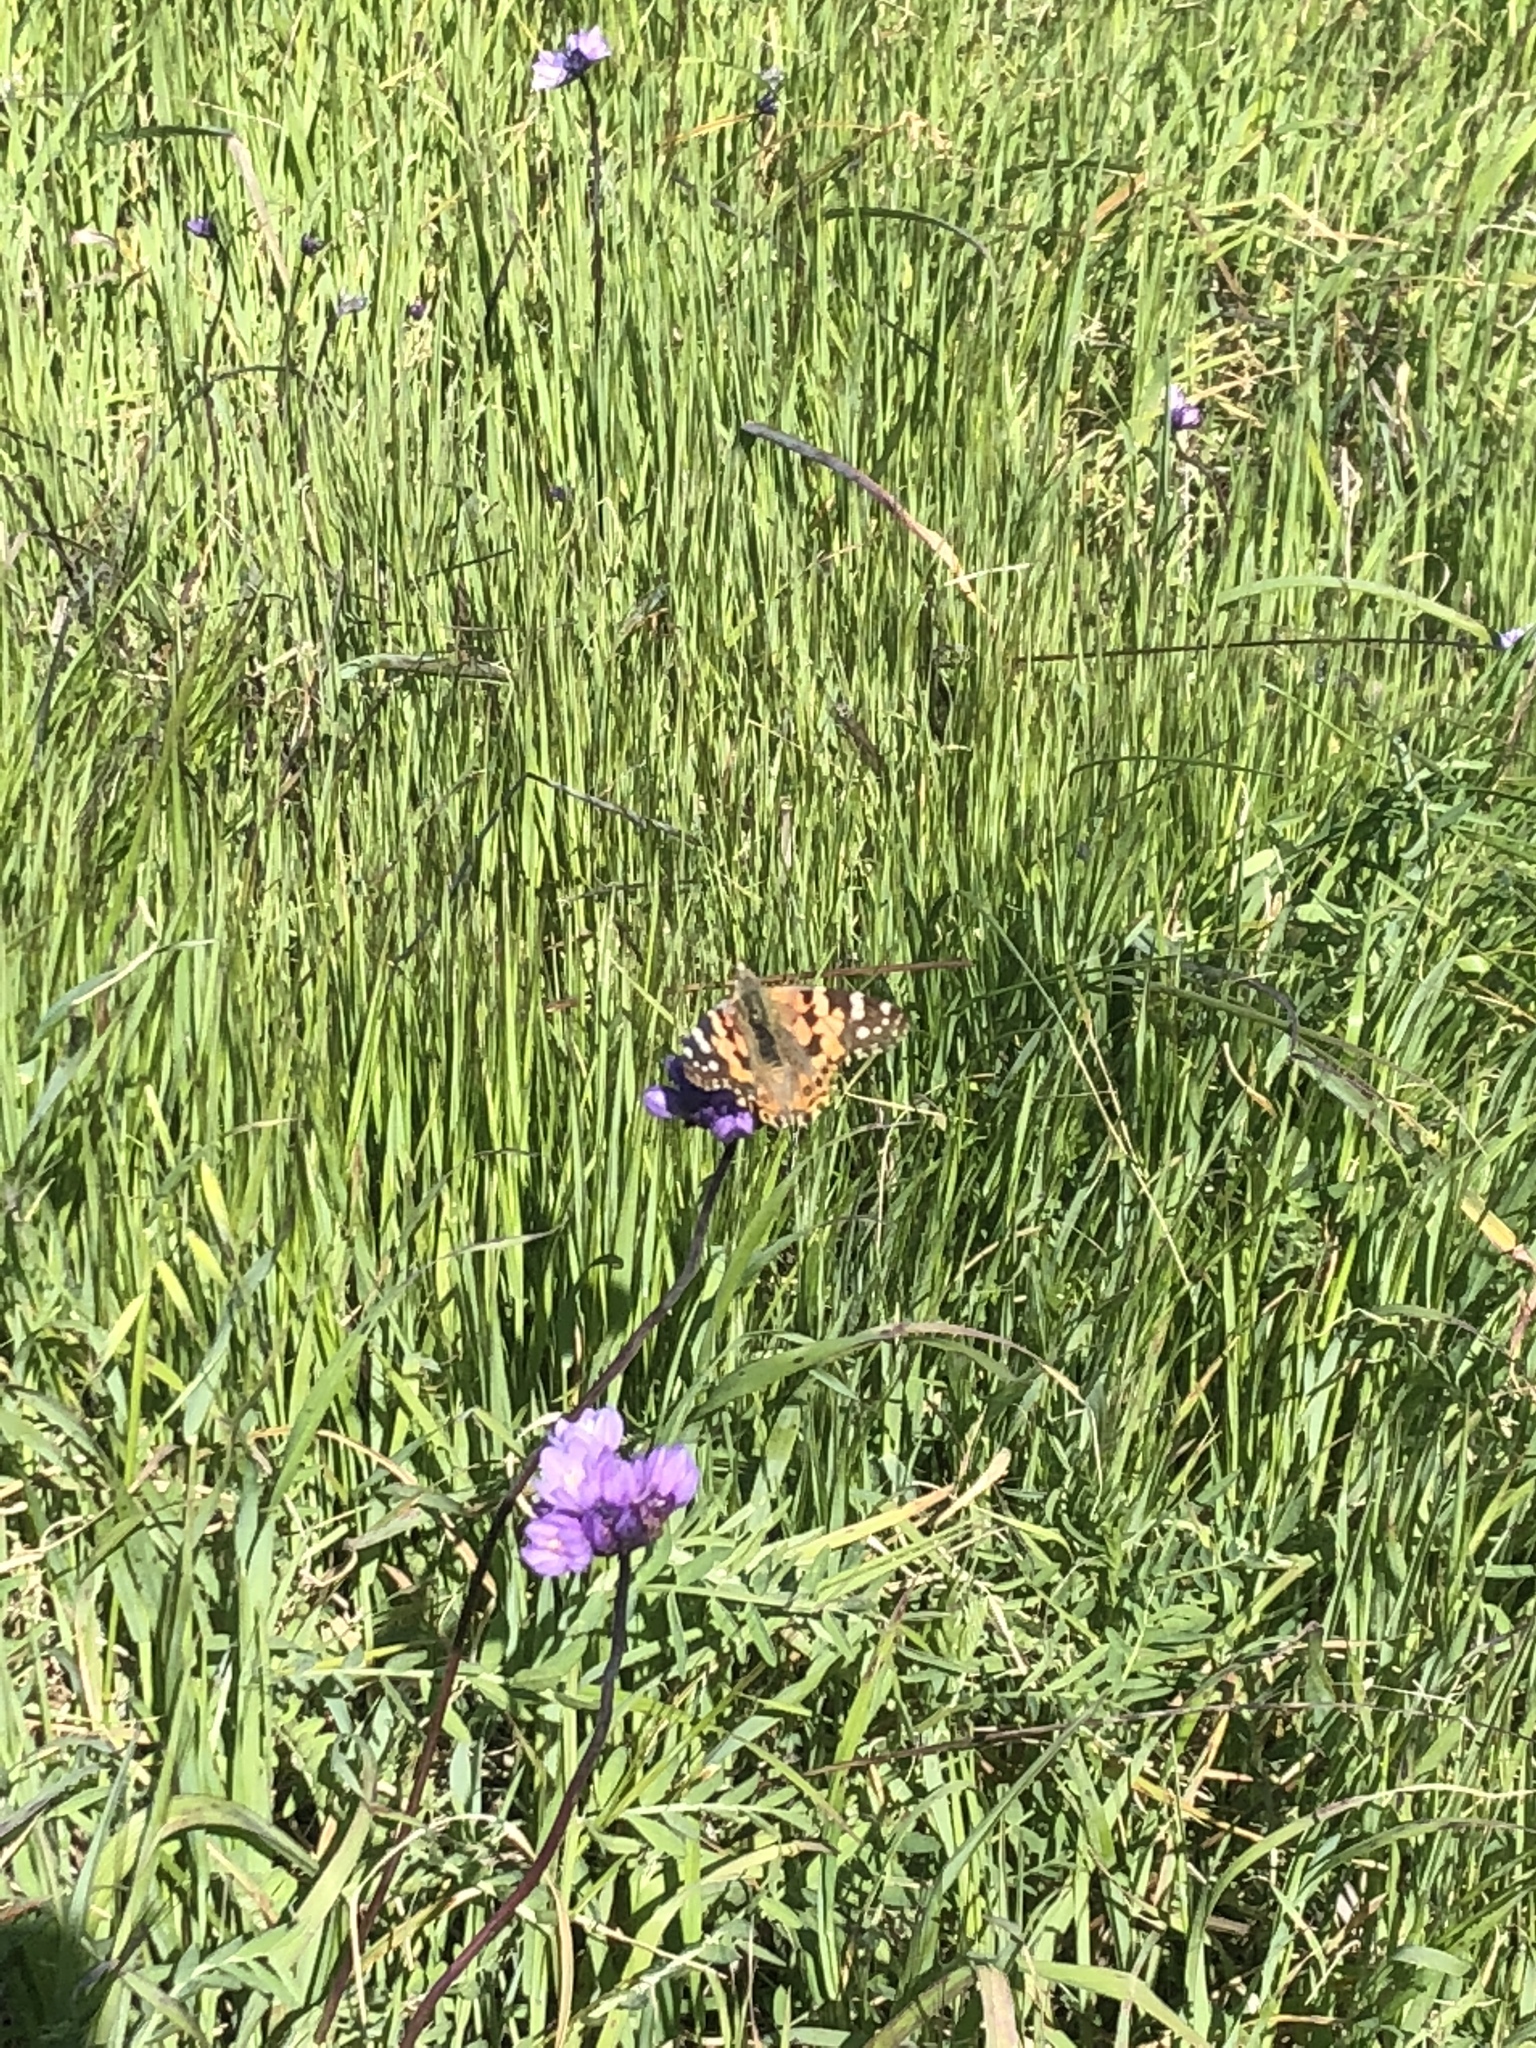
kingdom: Animalia
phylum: Arthropoda
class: Insecta
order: Lepidoptera
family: Nymphalidae
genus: Vanessa
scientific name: Vanessa cardui
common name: Painted lady
